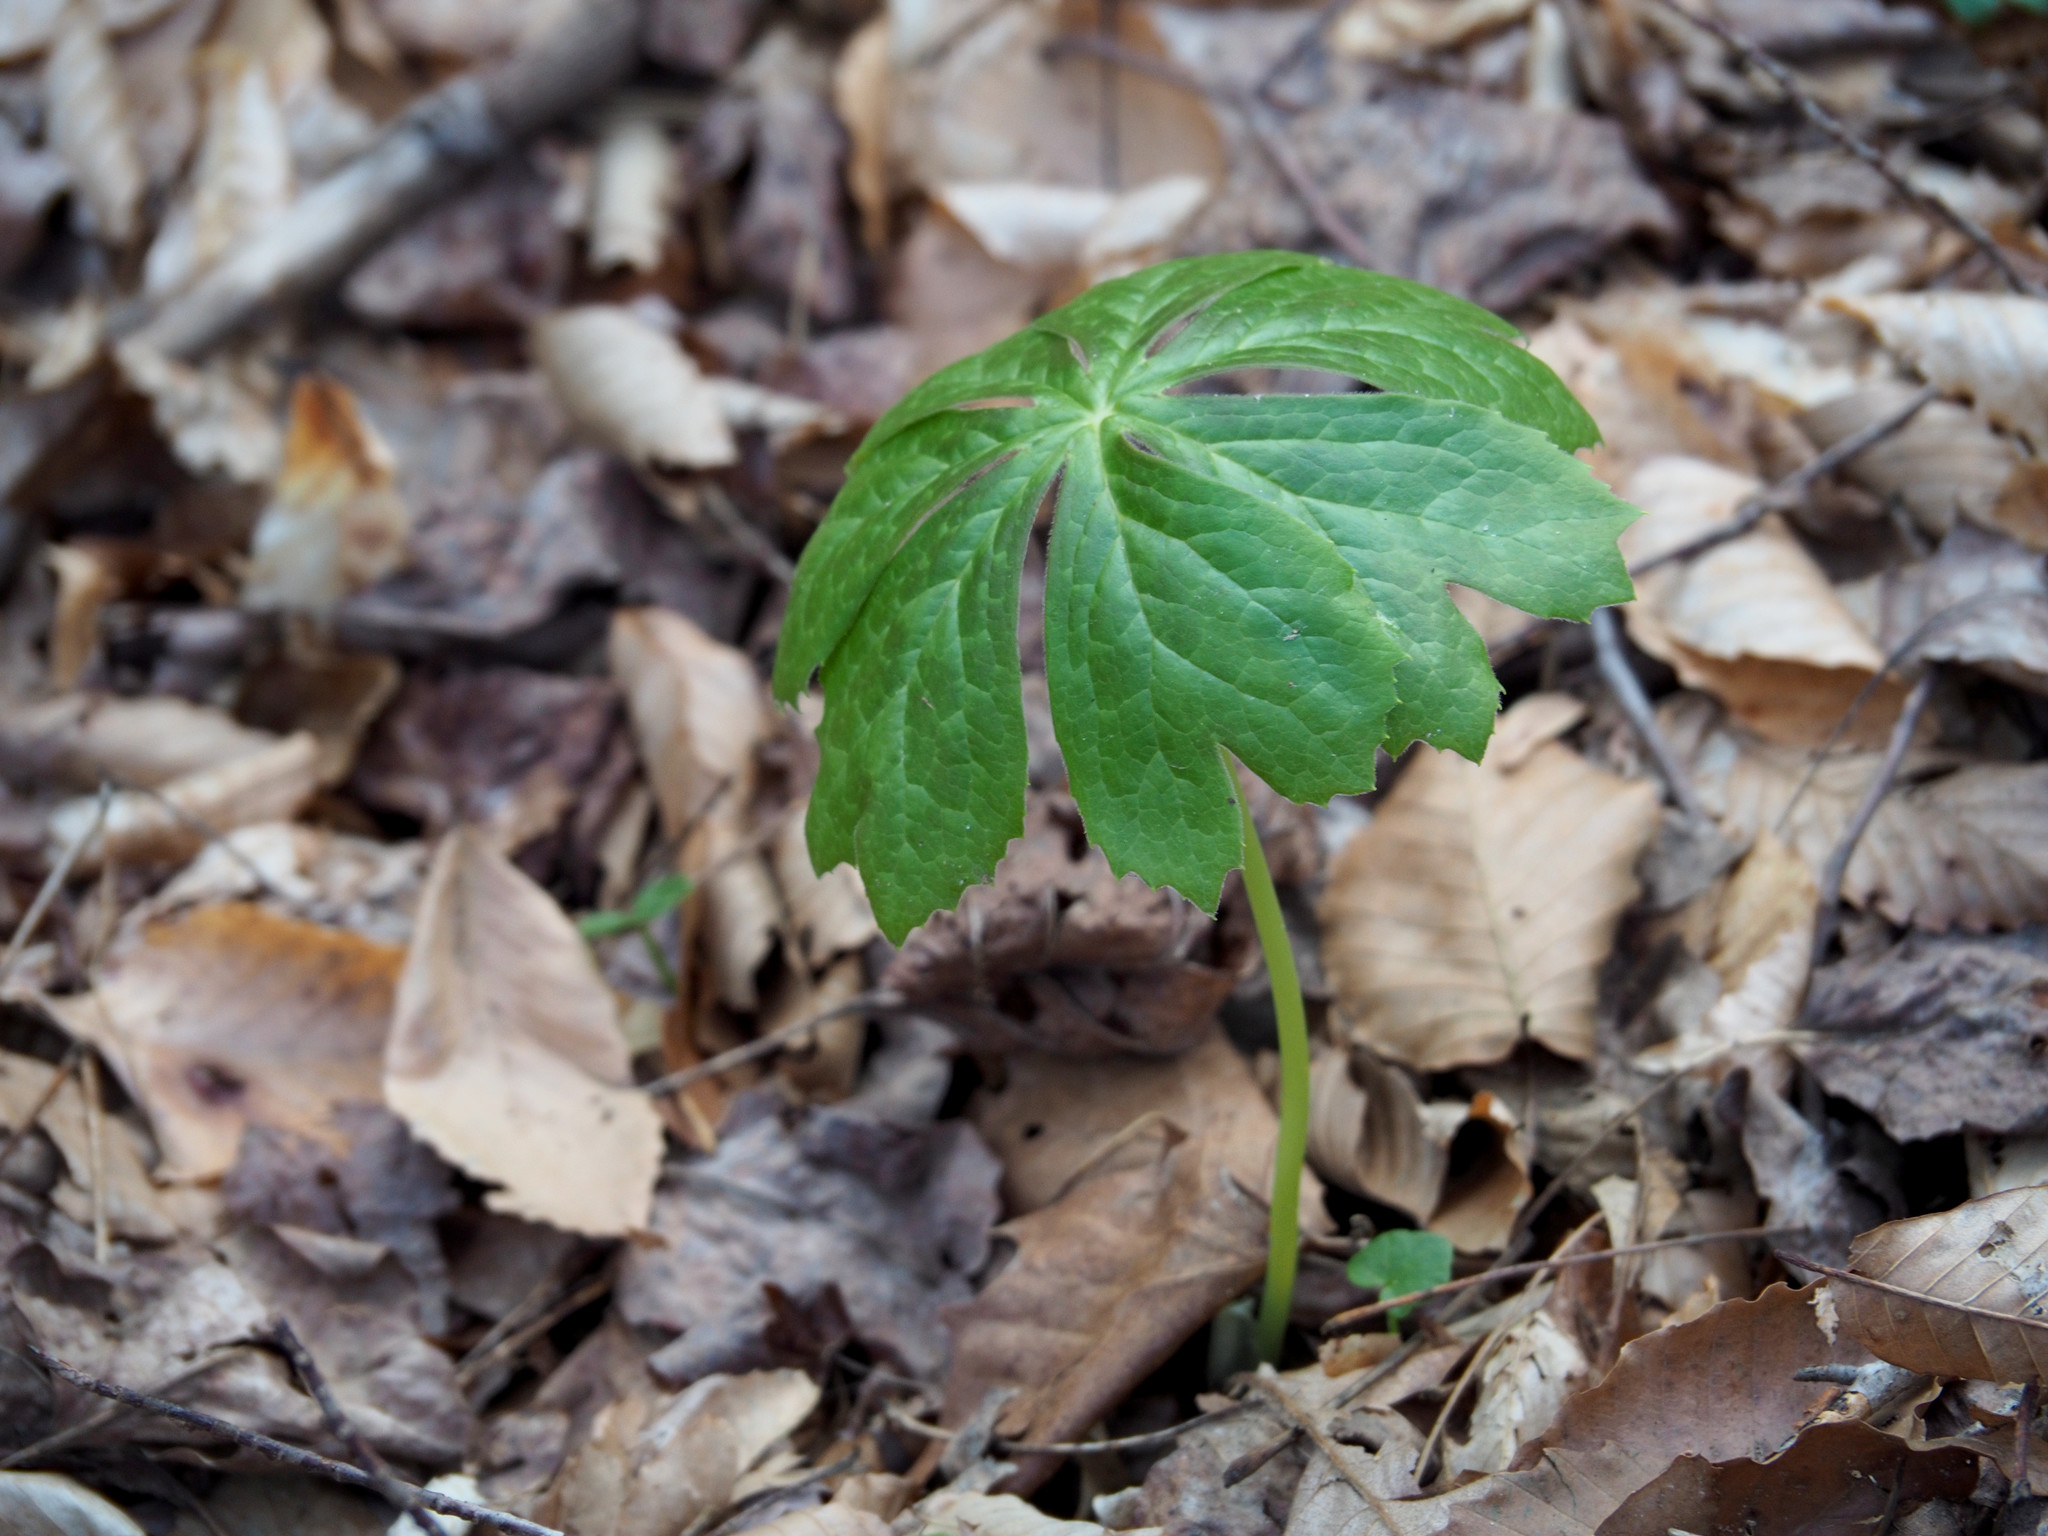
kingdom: Plantae
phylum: Tracheophyta
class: Magnoliopsida
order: Ranunculales
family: Berberidaceae
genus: Podophyllum
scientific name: Podophyllum peltatum
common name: Wild mandrake
